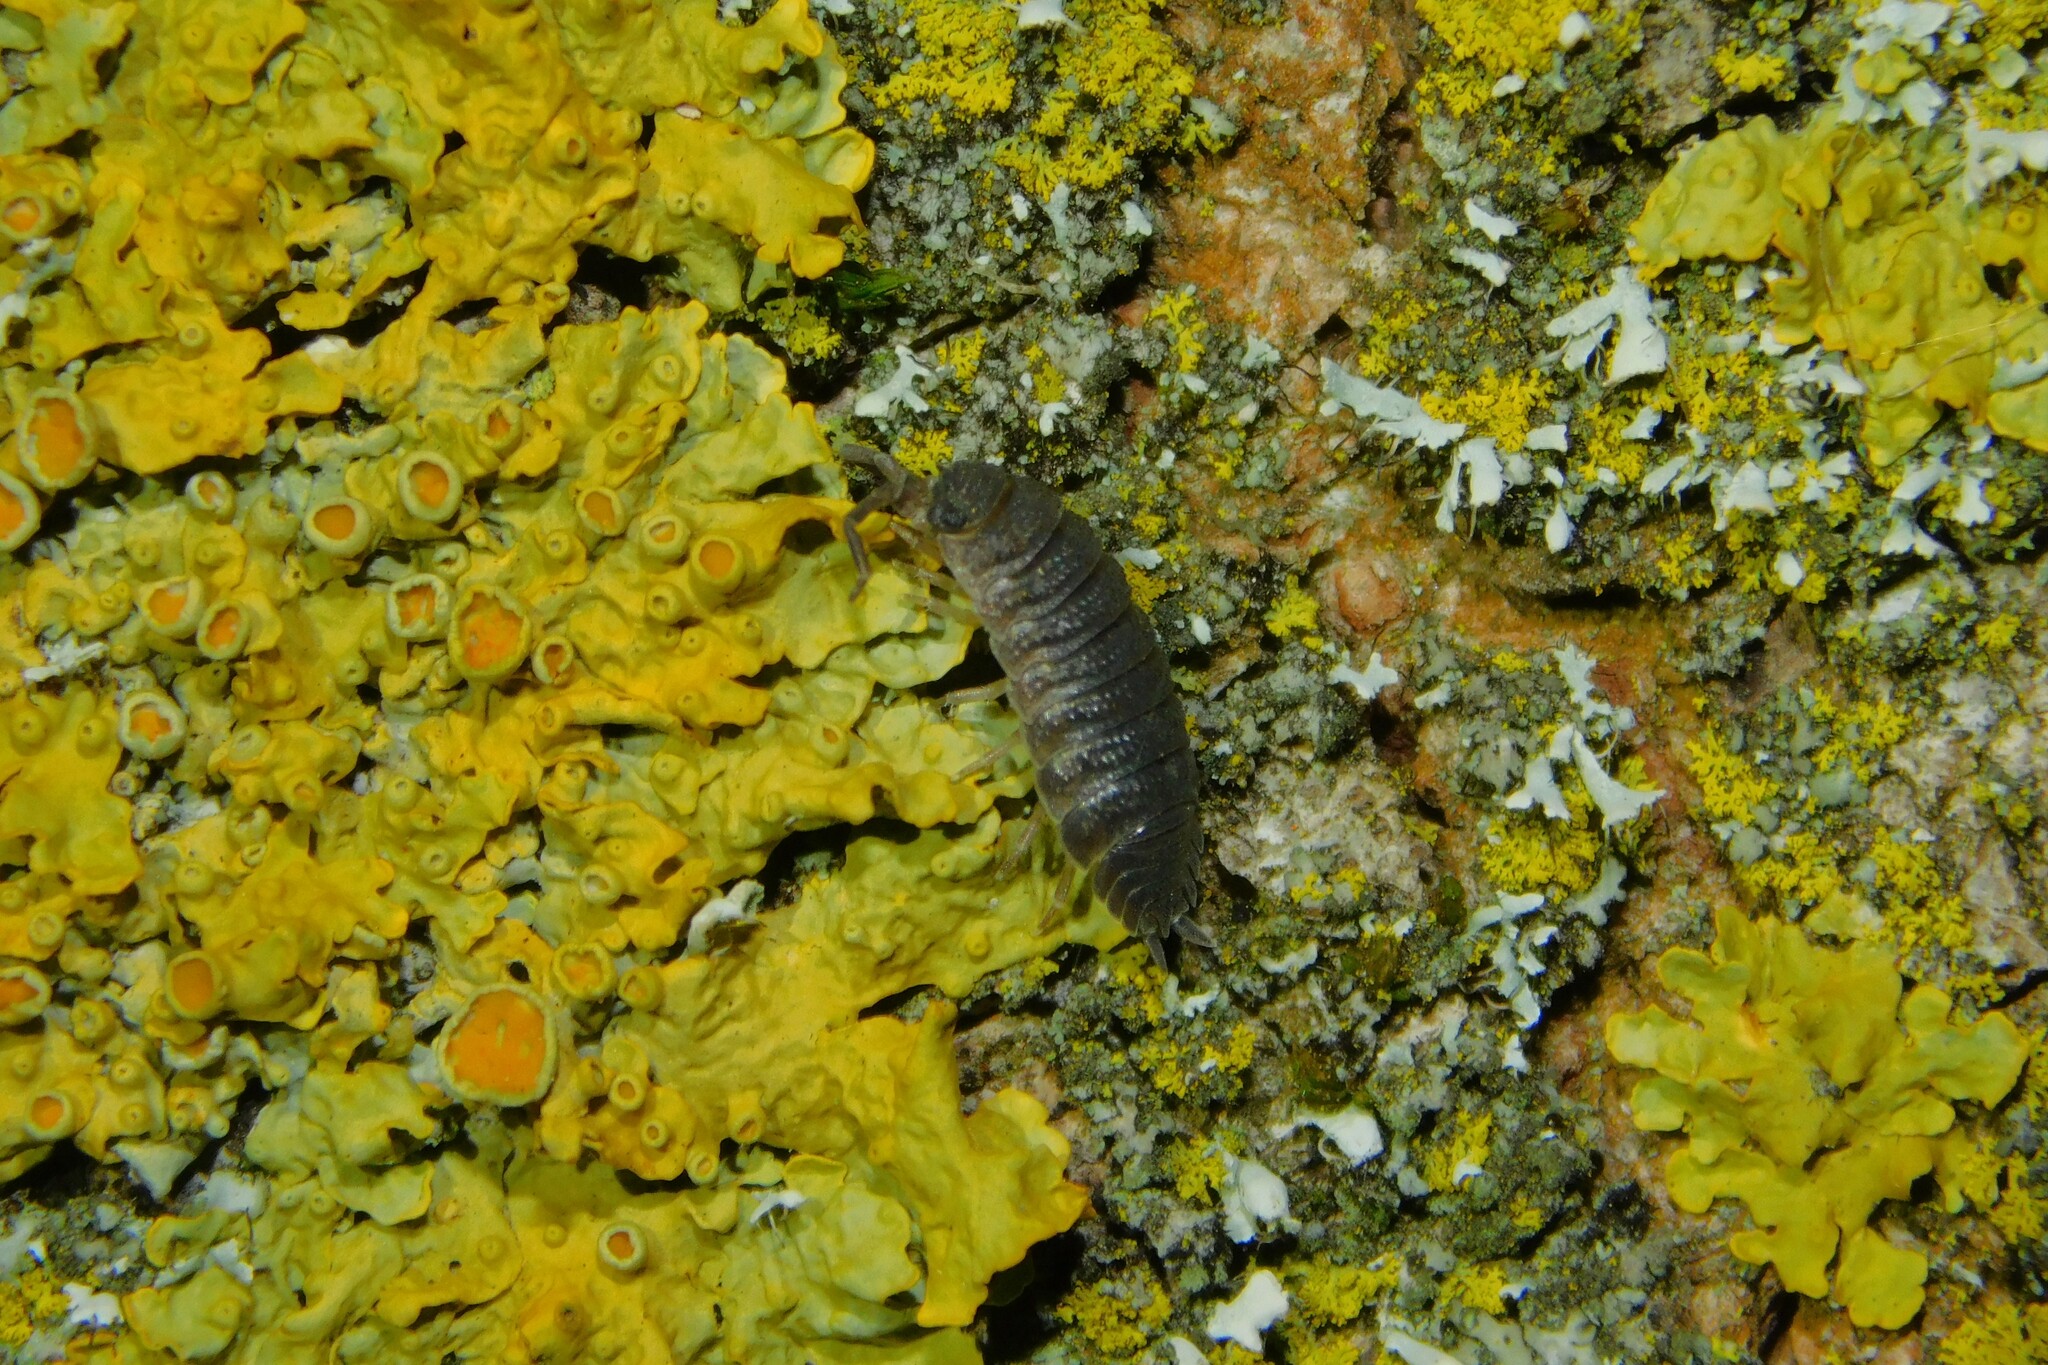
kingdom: Fungi
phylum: Ascomycota
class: Lecanoromycetes
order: Teloschistales
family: Teloschistaceae
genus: Xanthoria
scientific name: Xanthoria parietina
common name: Common orange lichen
